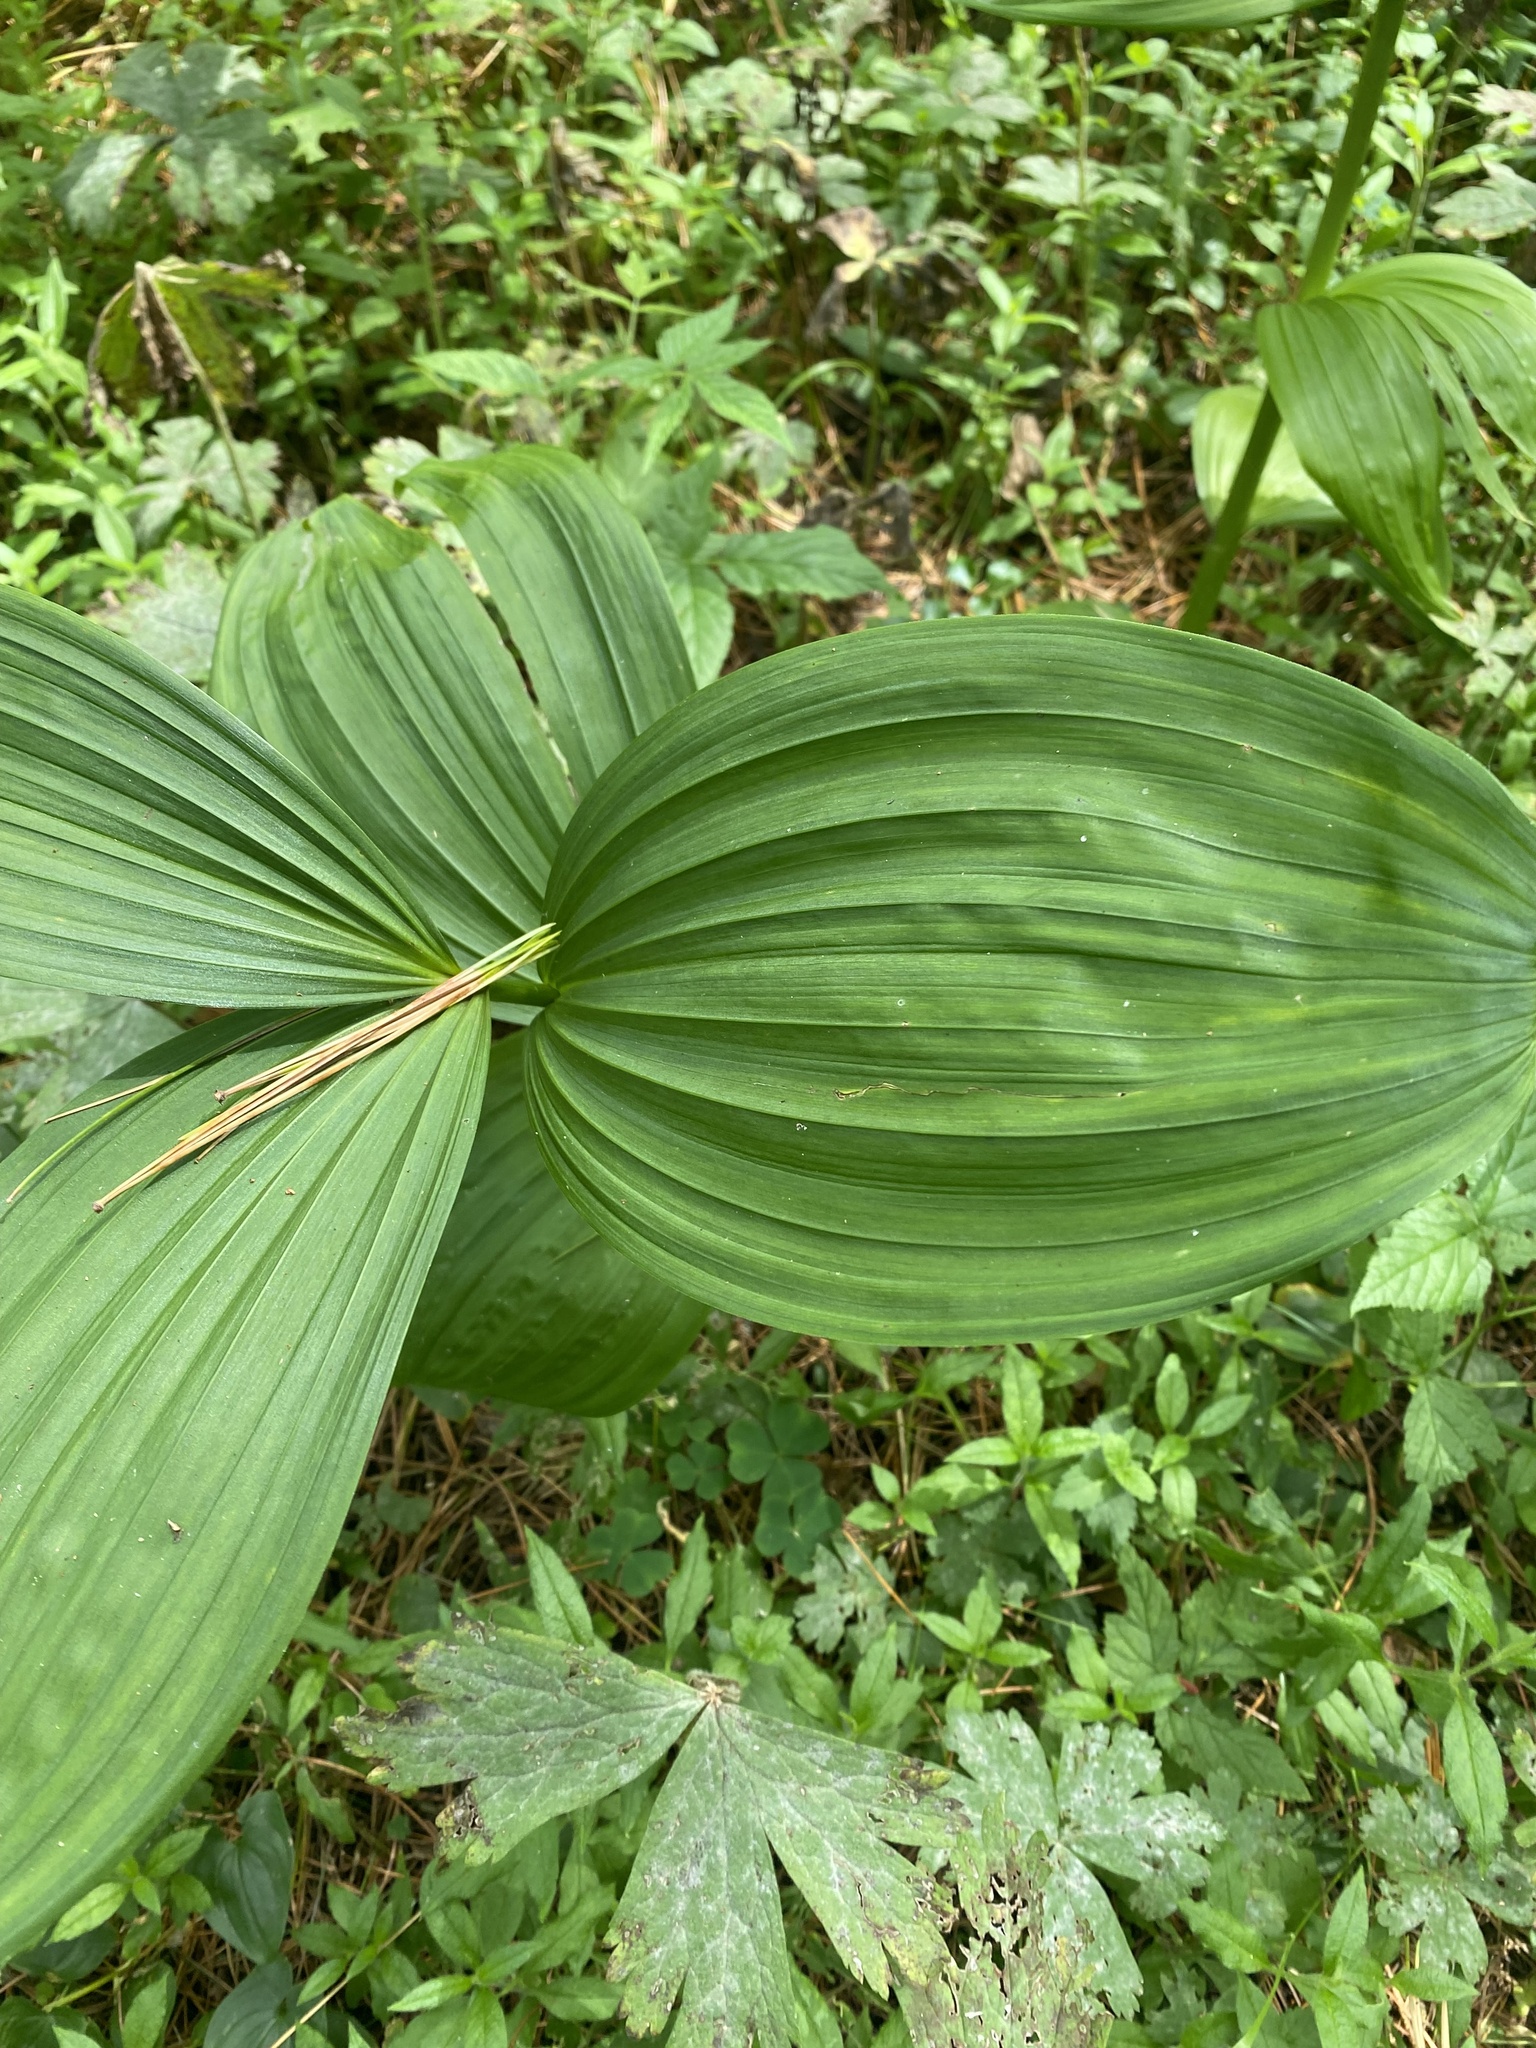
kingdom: Plantae
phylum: Tracheophyta
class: Liliopsida
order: Liliales
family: Melanthiaceae
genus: Veratrum
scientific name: Veratrum lobelianum
